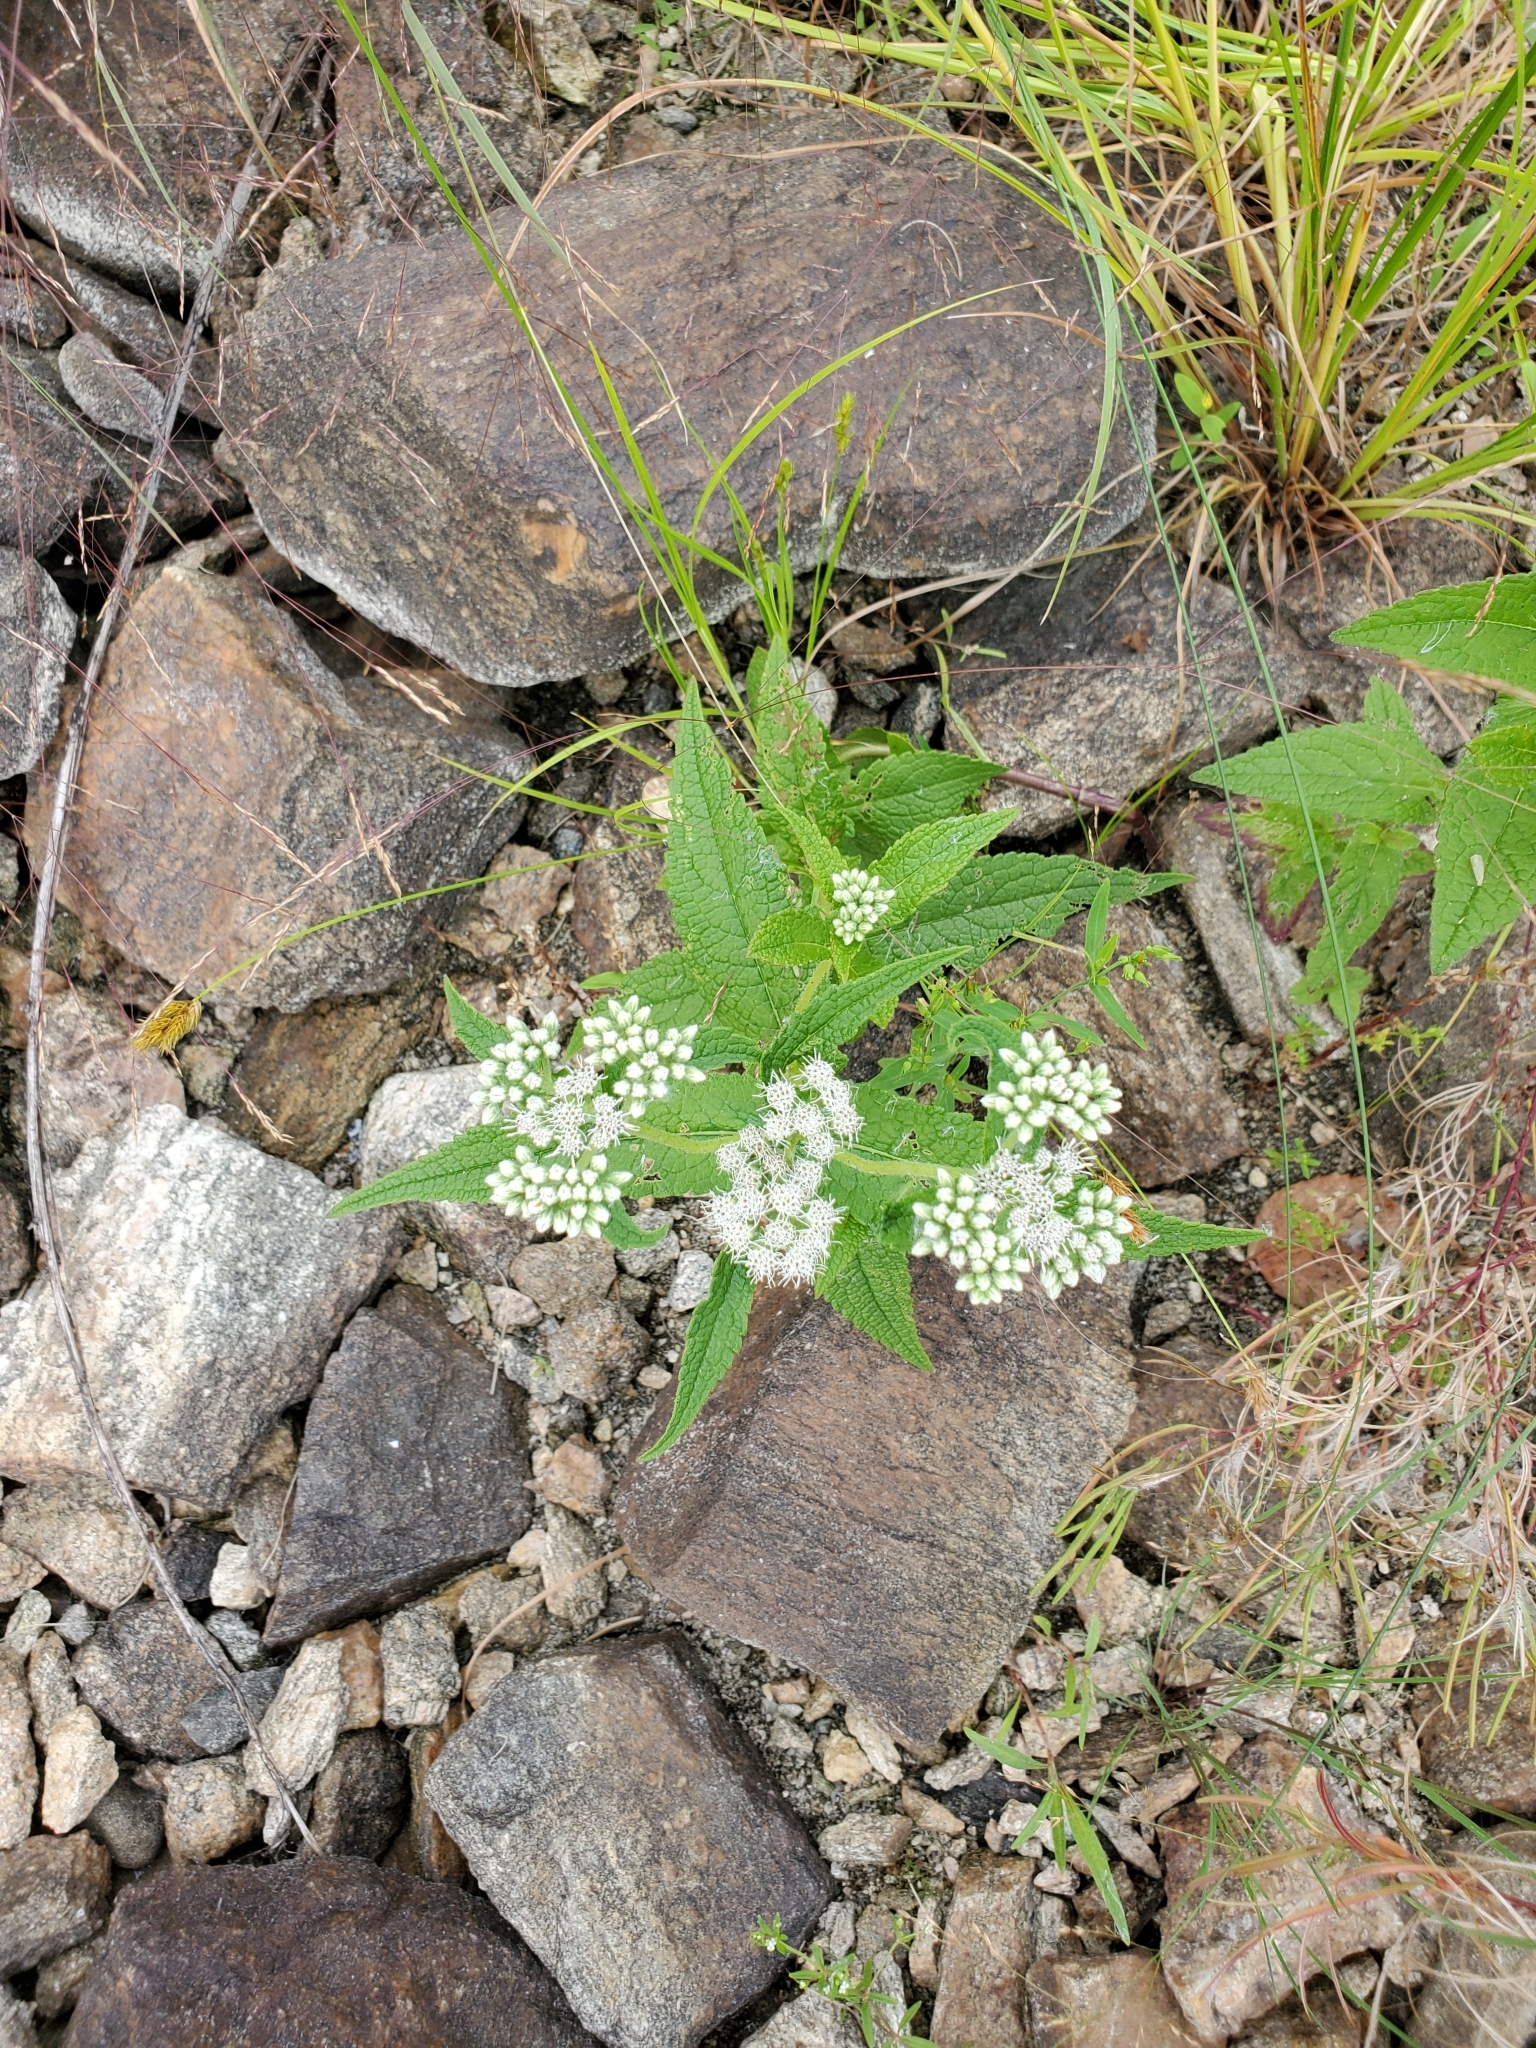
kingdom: Plantae
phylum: Tracheophyta
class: Magnoliopsida
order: Asterales
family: Asteraceae
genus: Eupatorium
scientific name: Eupatorium perfoliatum
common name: Boneset
